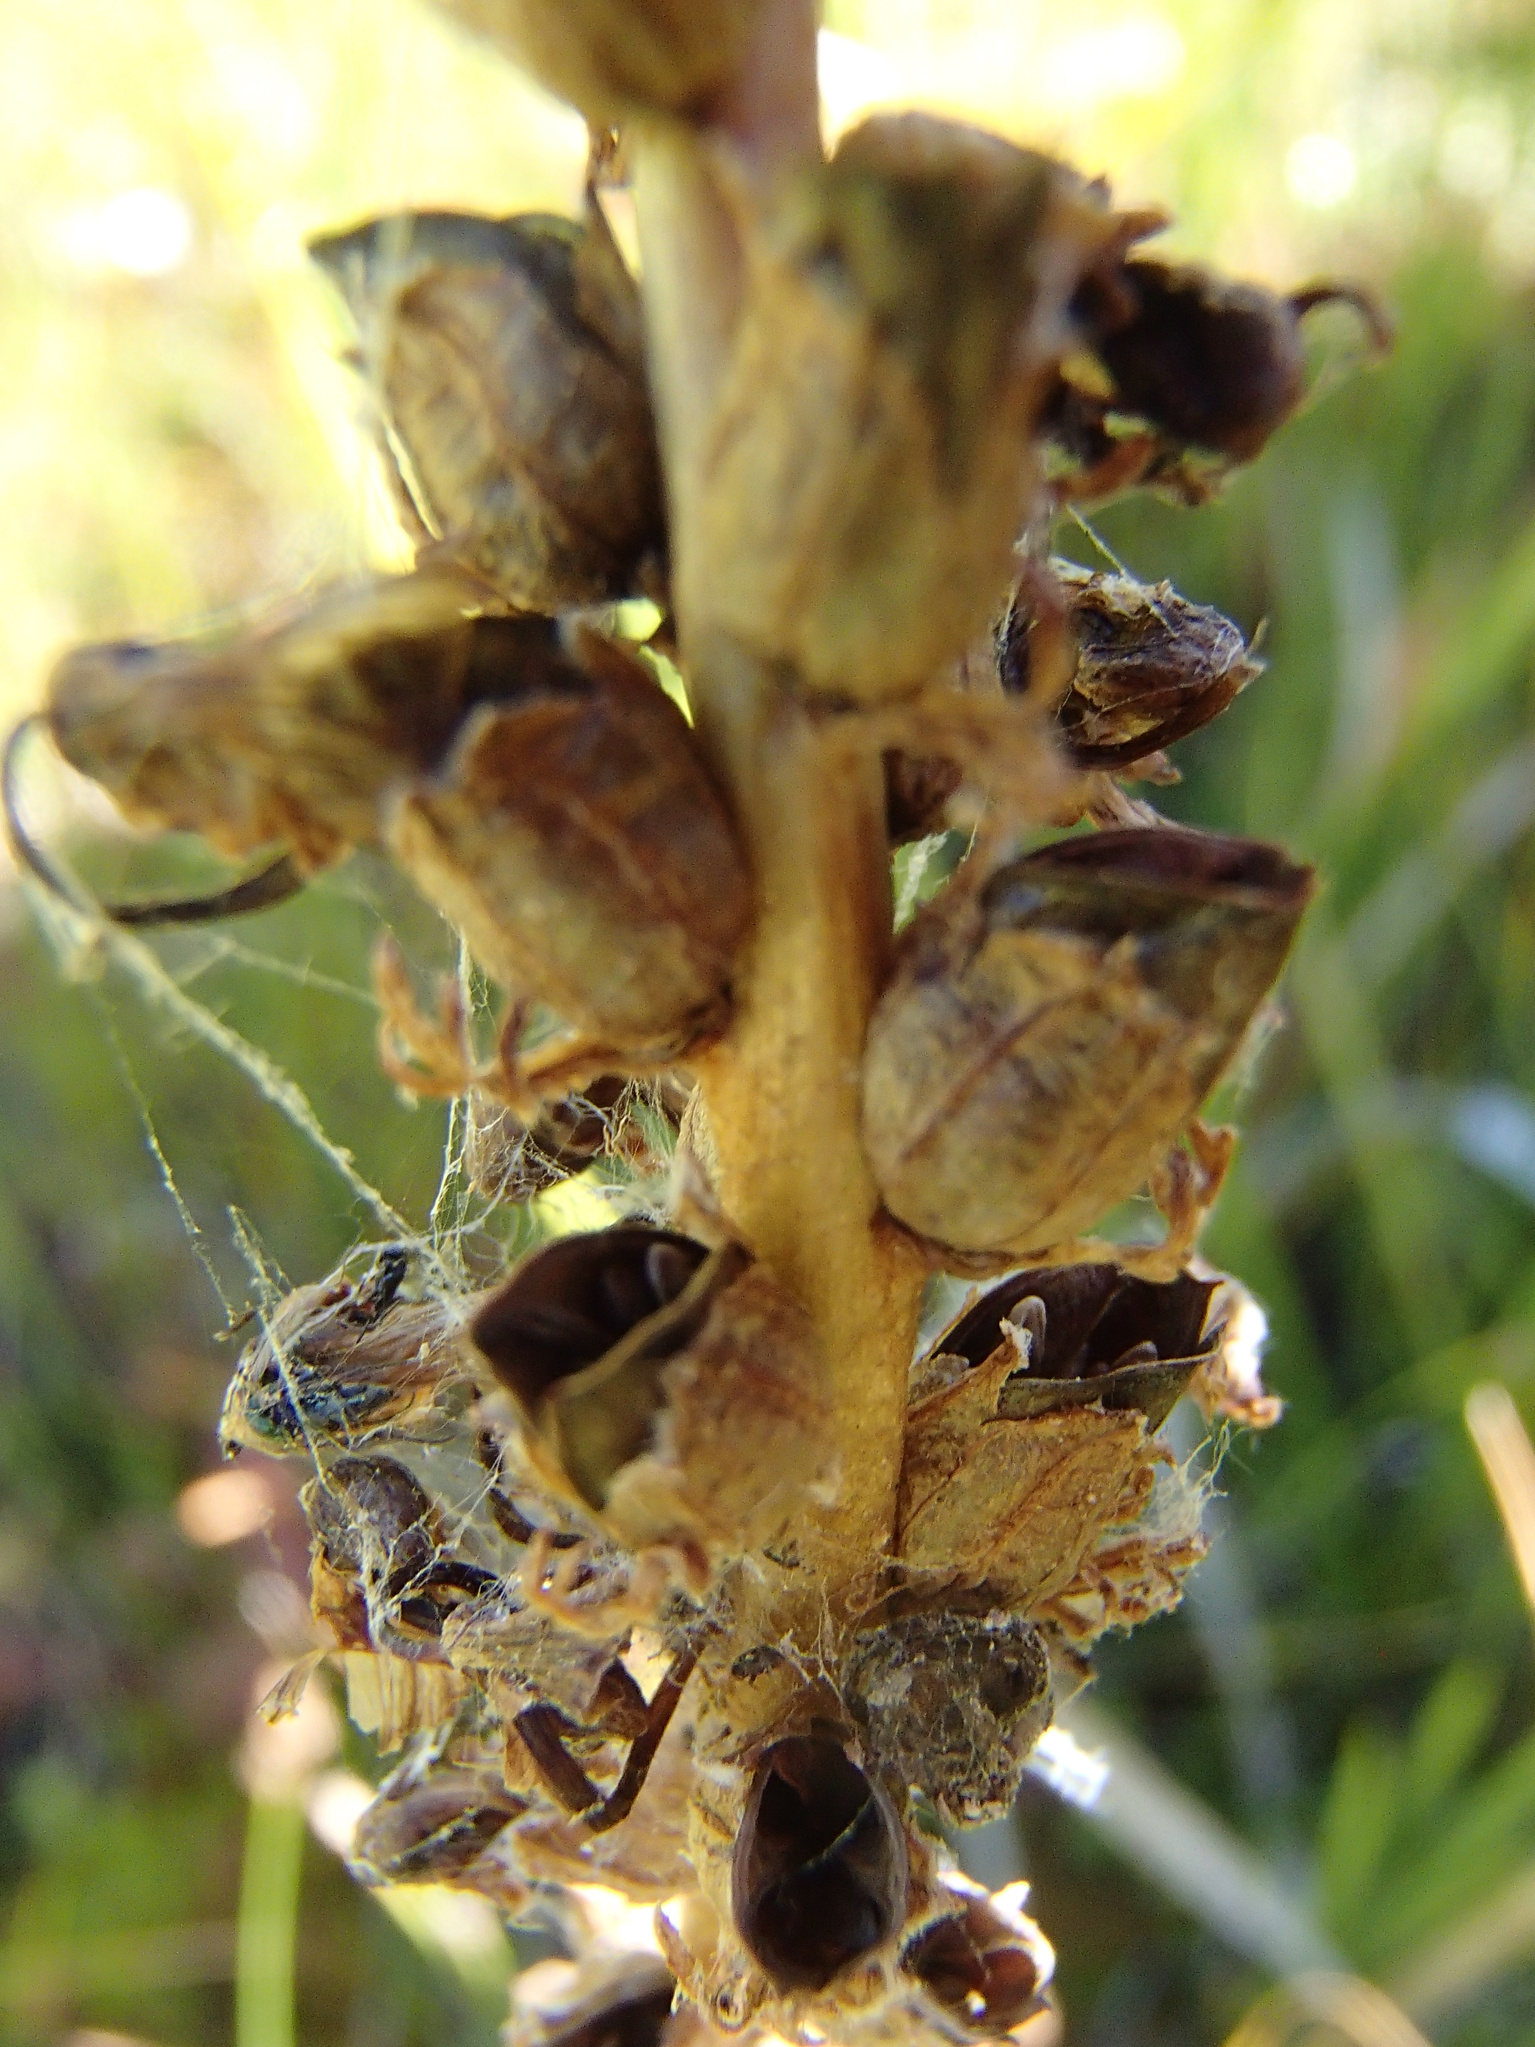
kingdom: Plantae
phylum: Tracheophyta
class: Magnoliopsida
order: Lamiales
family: Orobanchaceae
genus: Pedicularis
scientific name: Pedicularis groenlandica
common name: Elephant's-head
